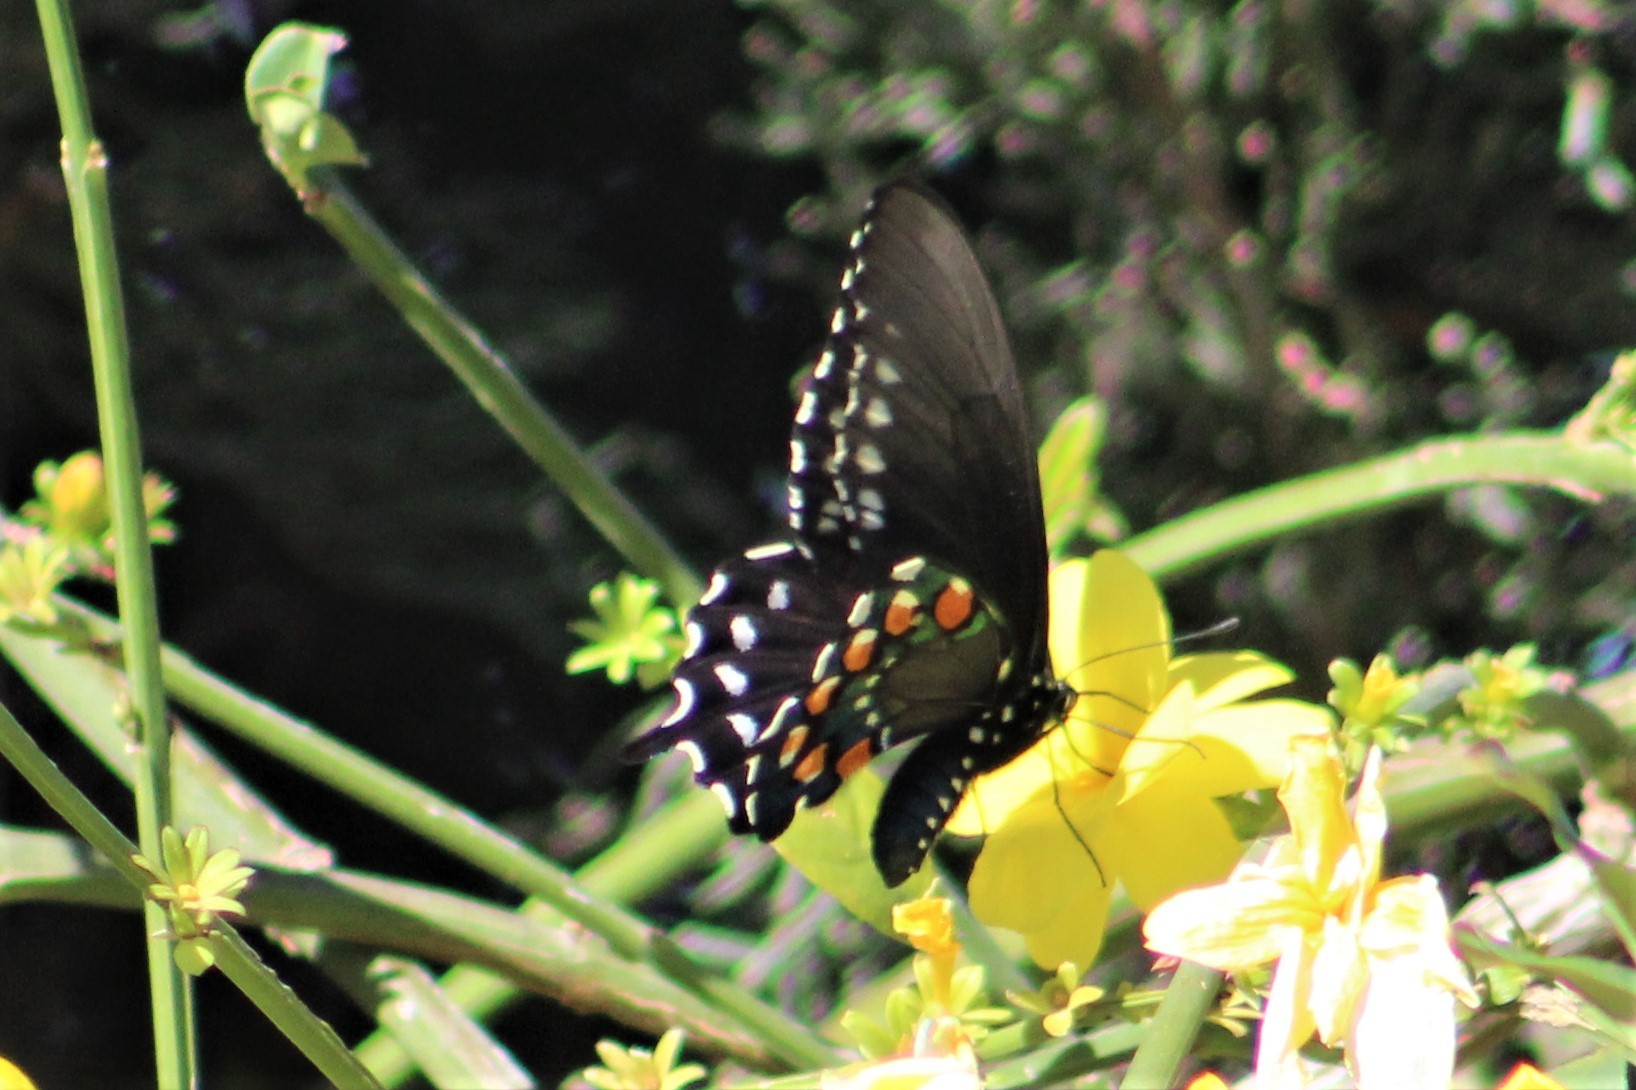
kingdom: Animalia
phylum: Arthropoda
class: Insecta
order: Lepidoptera
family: Papilionidae
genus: Battus
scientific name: Battus philenor
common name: Pipevine swallowtail
